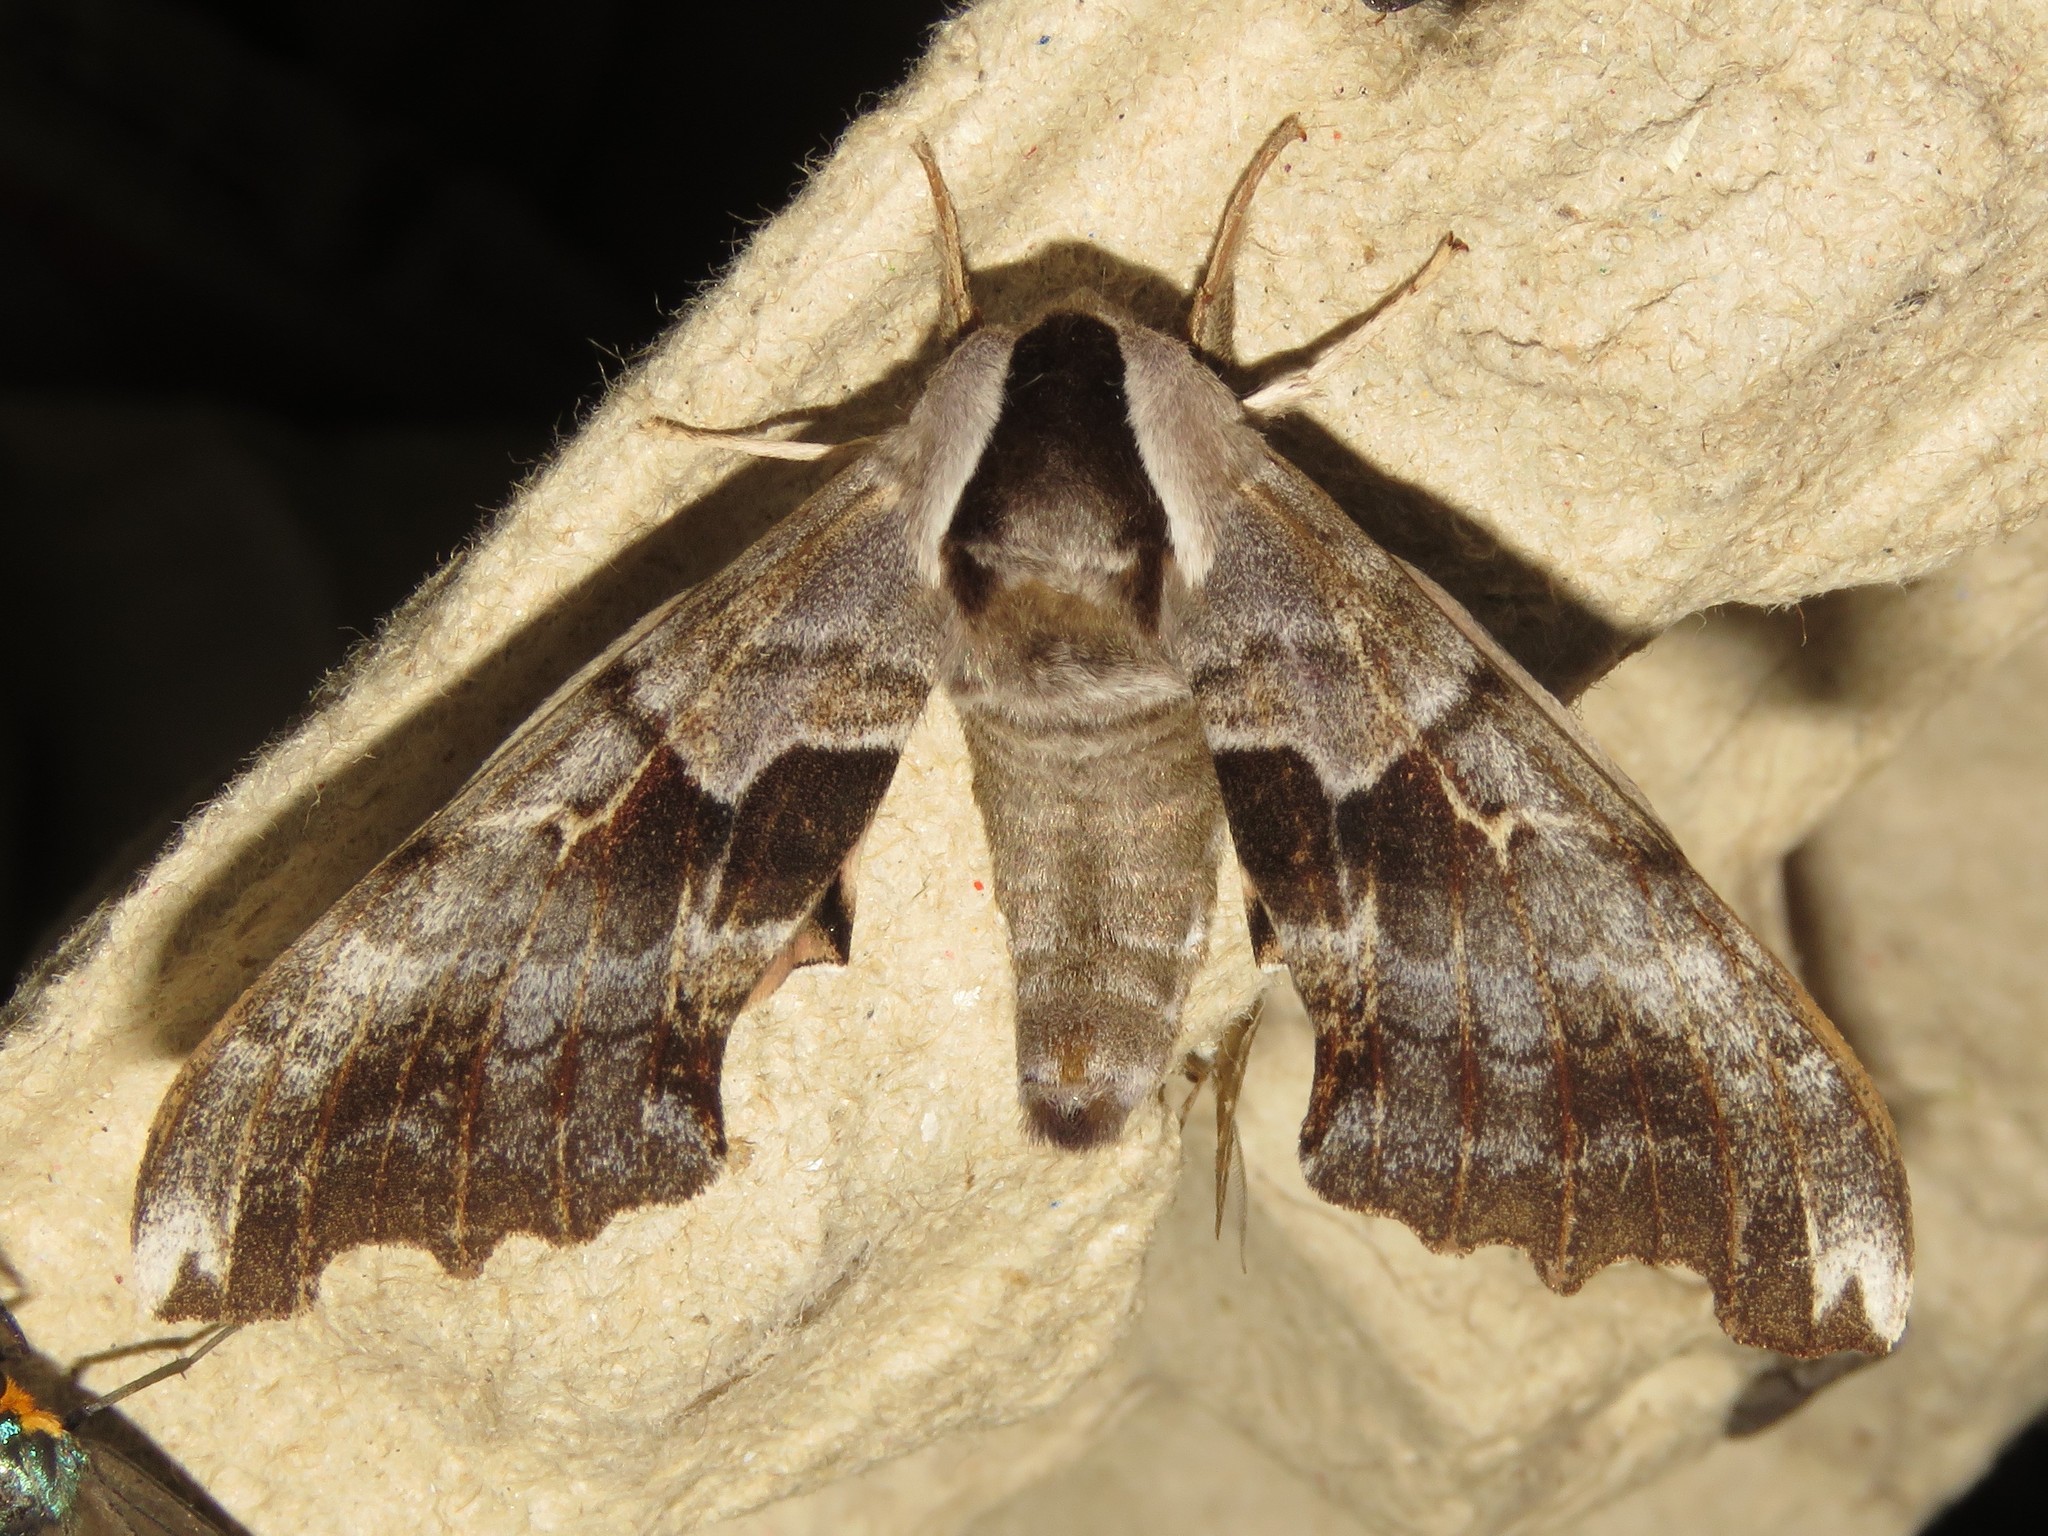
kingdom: Animalia
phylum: Arthropoda
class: Insecta
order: Lepidoptera
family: Sphingidae
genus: Smerinthus
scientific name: Smerinthus cerisyi
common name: Cerisy's sphinx moth
